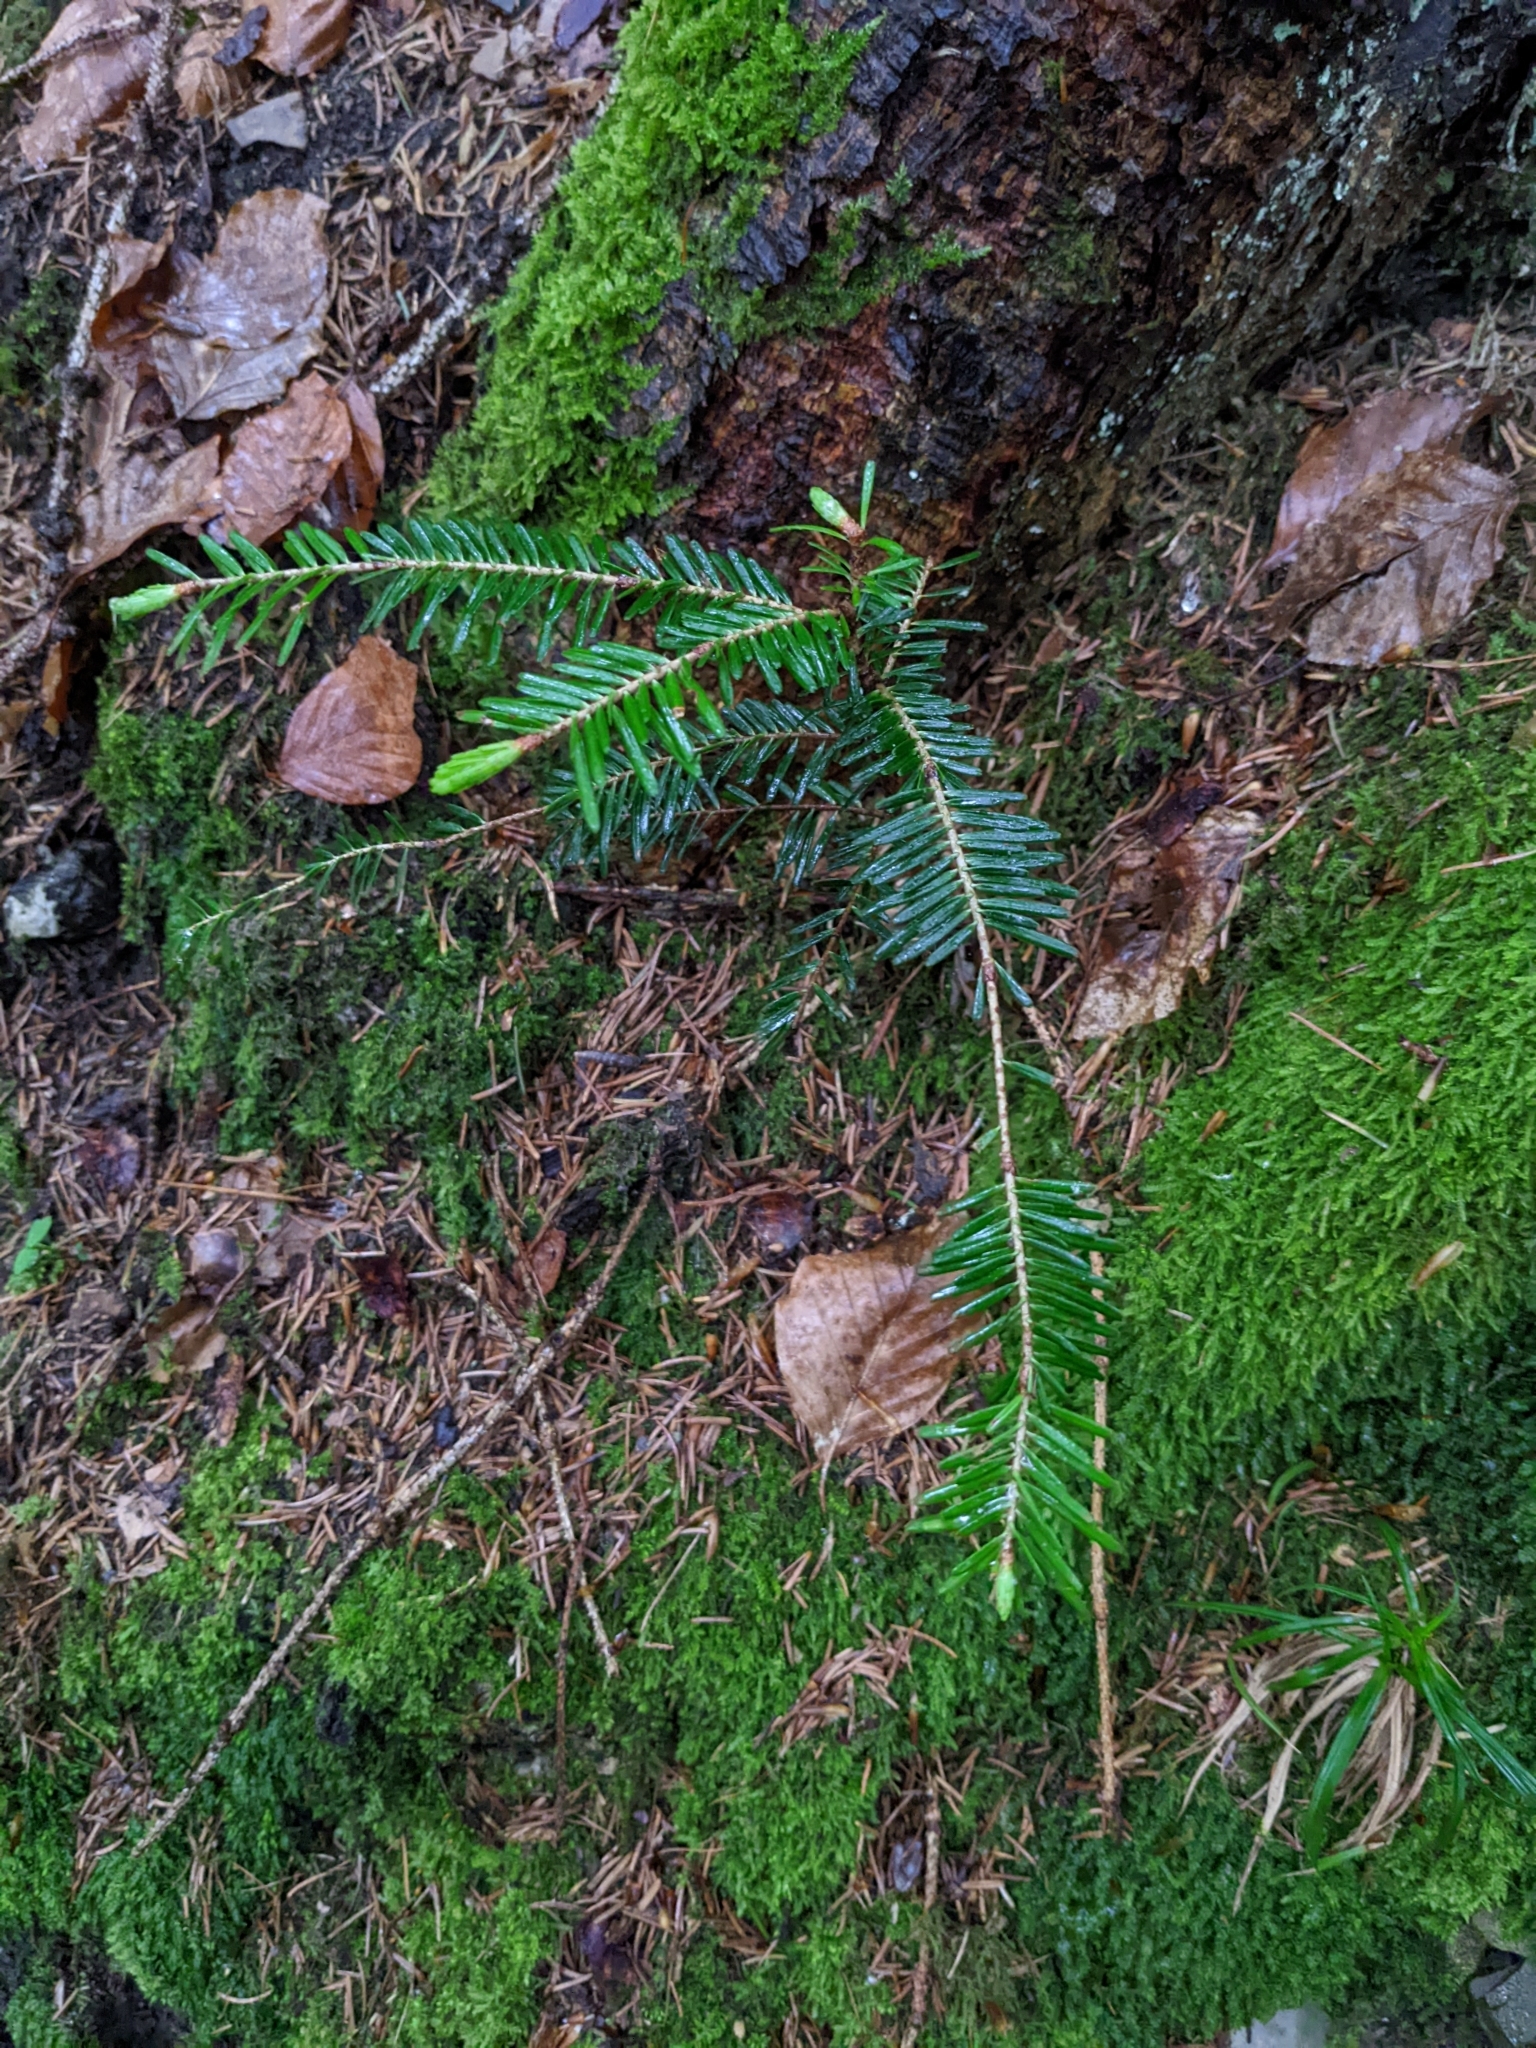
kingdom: Plantae
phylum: Tracheophyta
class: Pinopsida
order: Pinales
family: Pinaceae
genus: Abies
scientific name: Abies alba
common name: Silver fir
